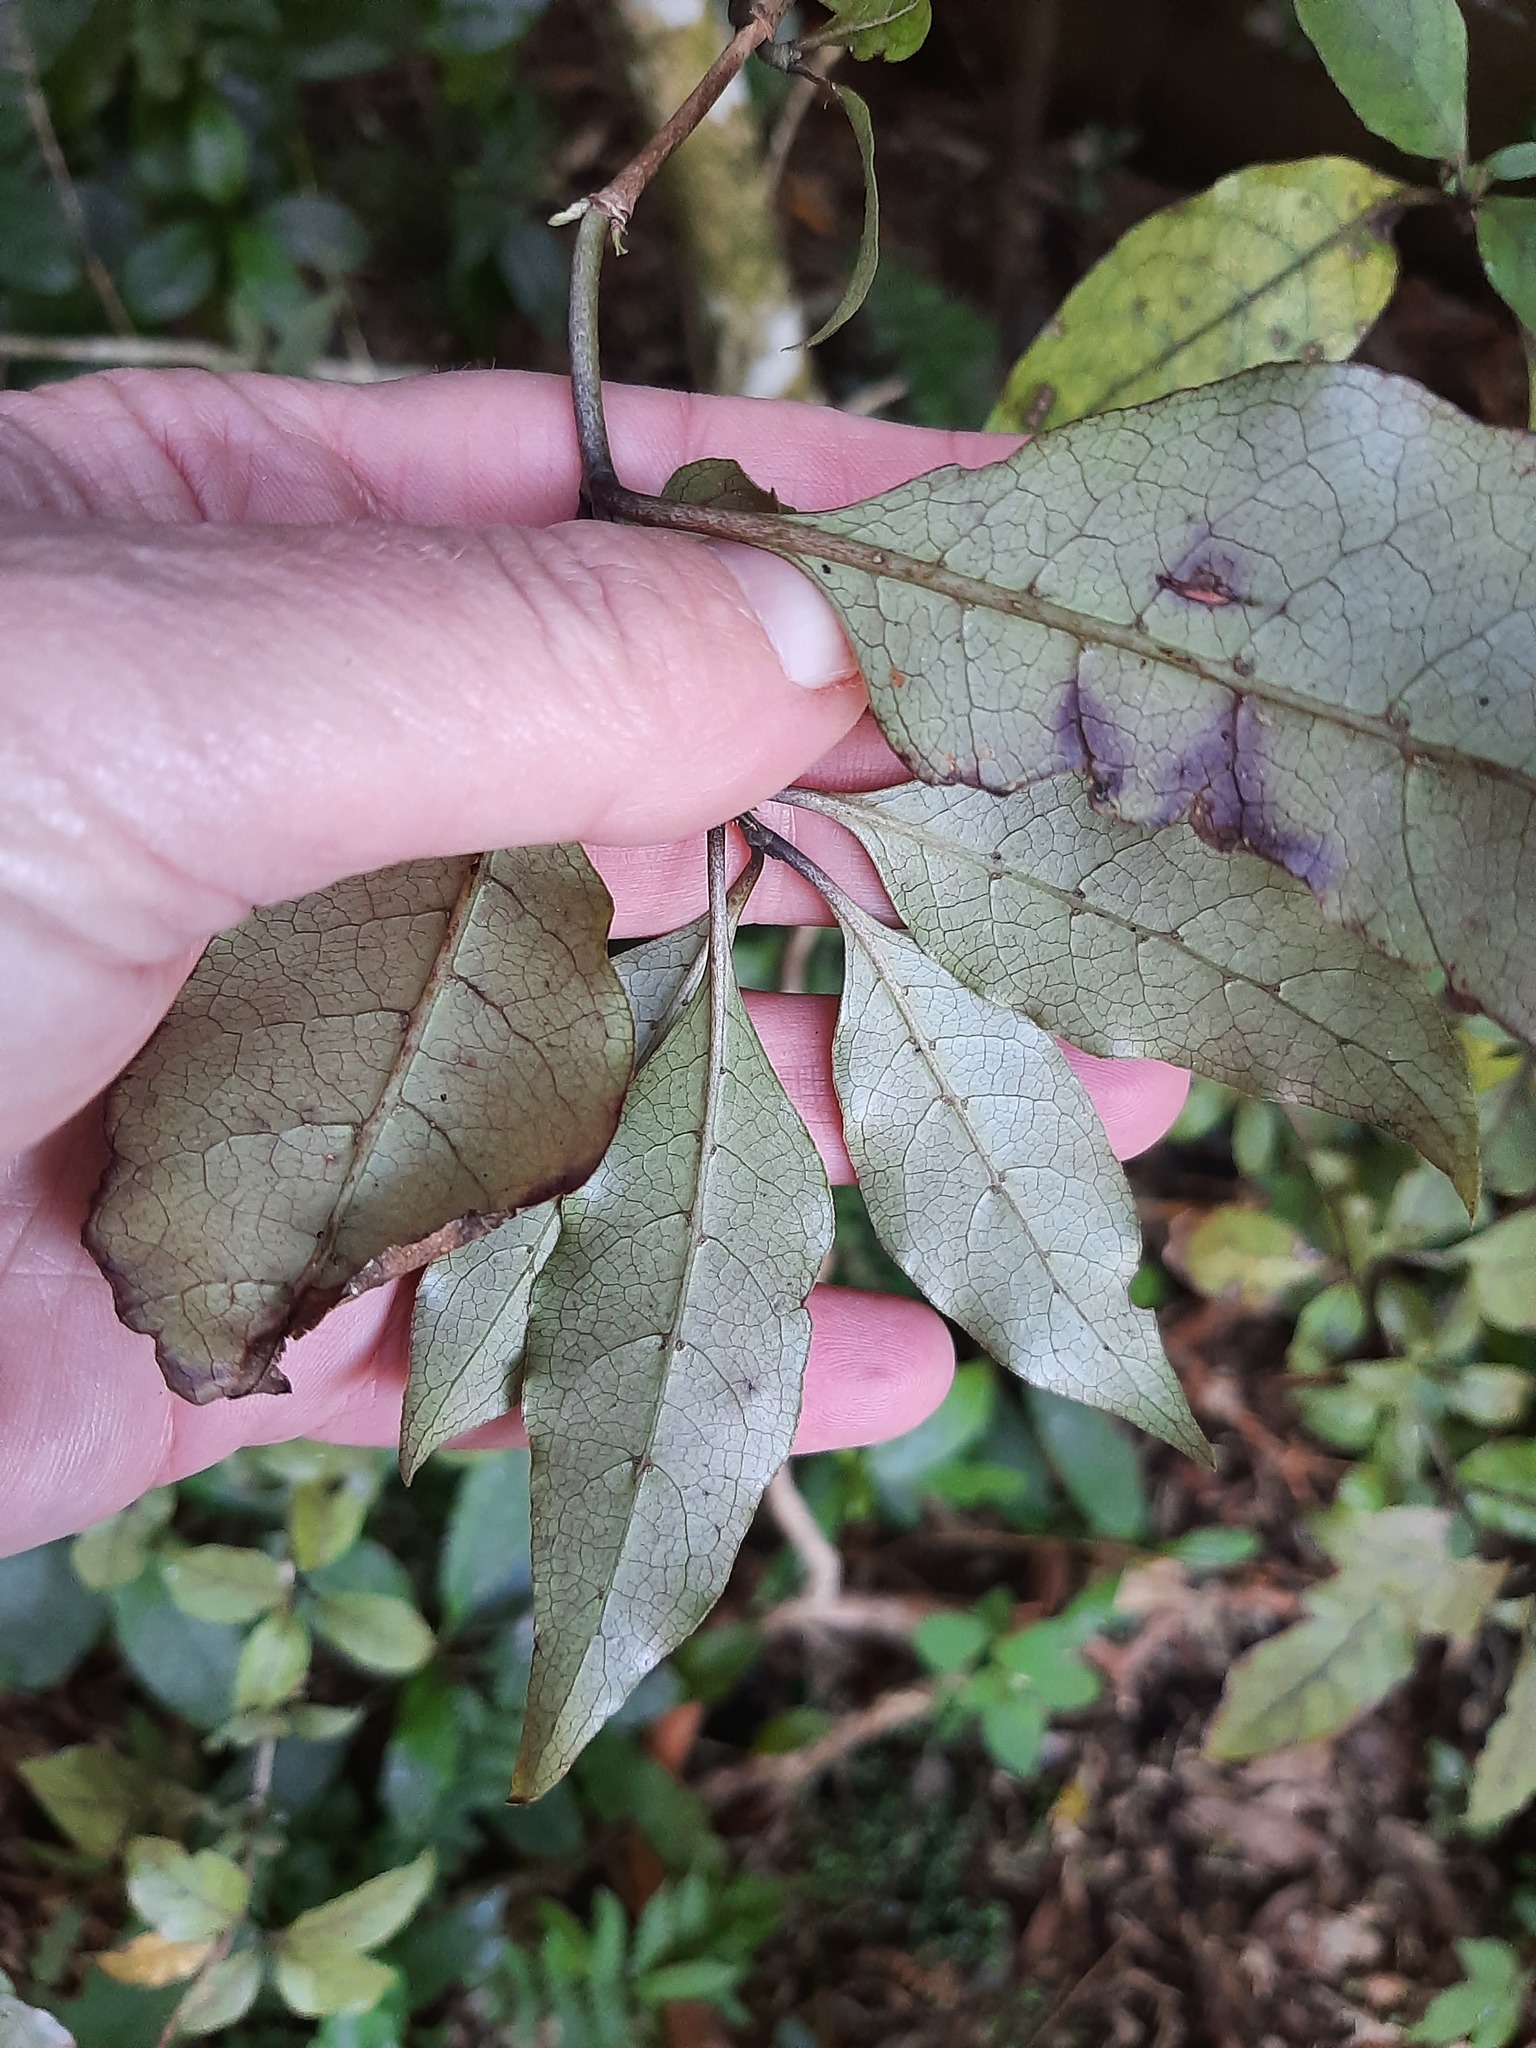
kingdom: Plantae
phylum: Tracheophyta
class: Magnoliopsida
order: Gentianales
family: Rubiaceae
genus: Coprosma
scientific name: Coprosma tenuifolia
